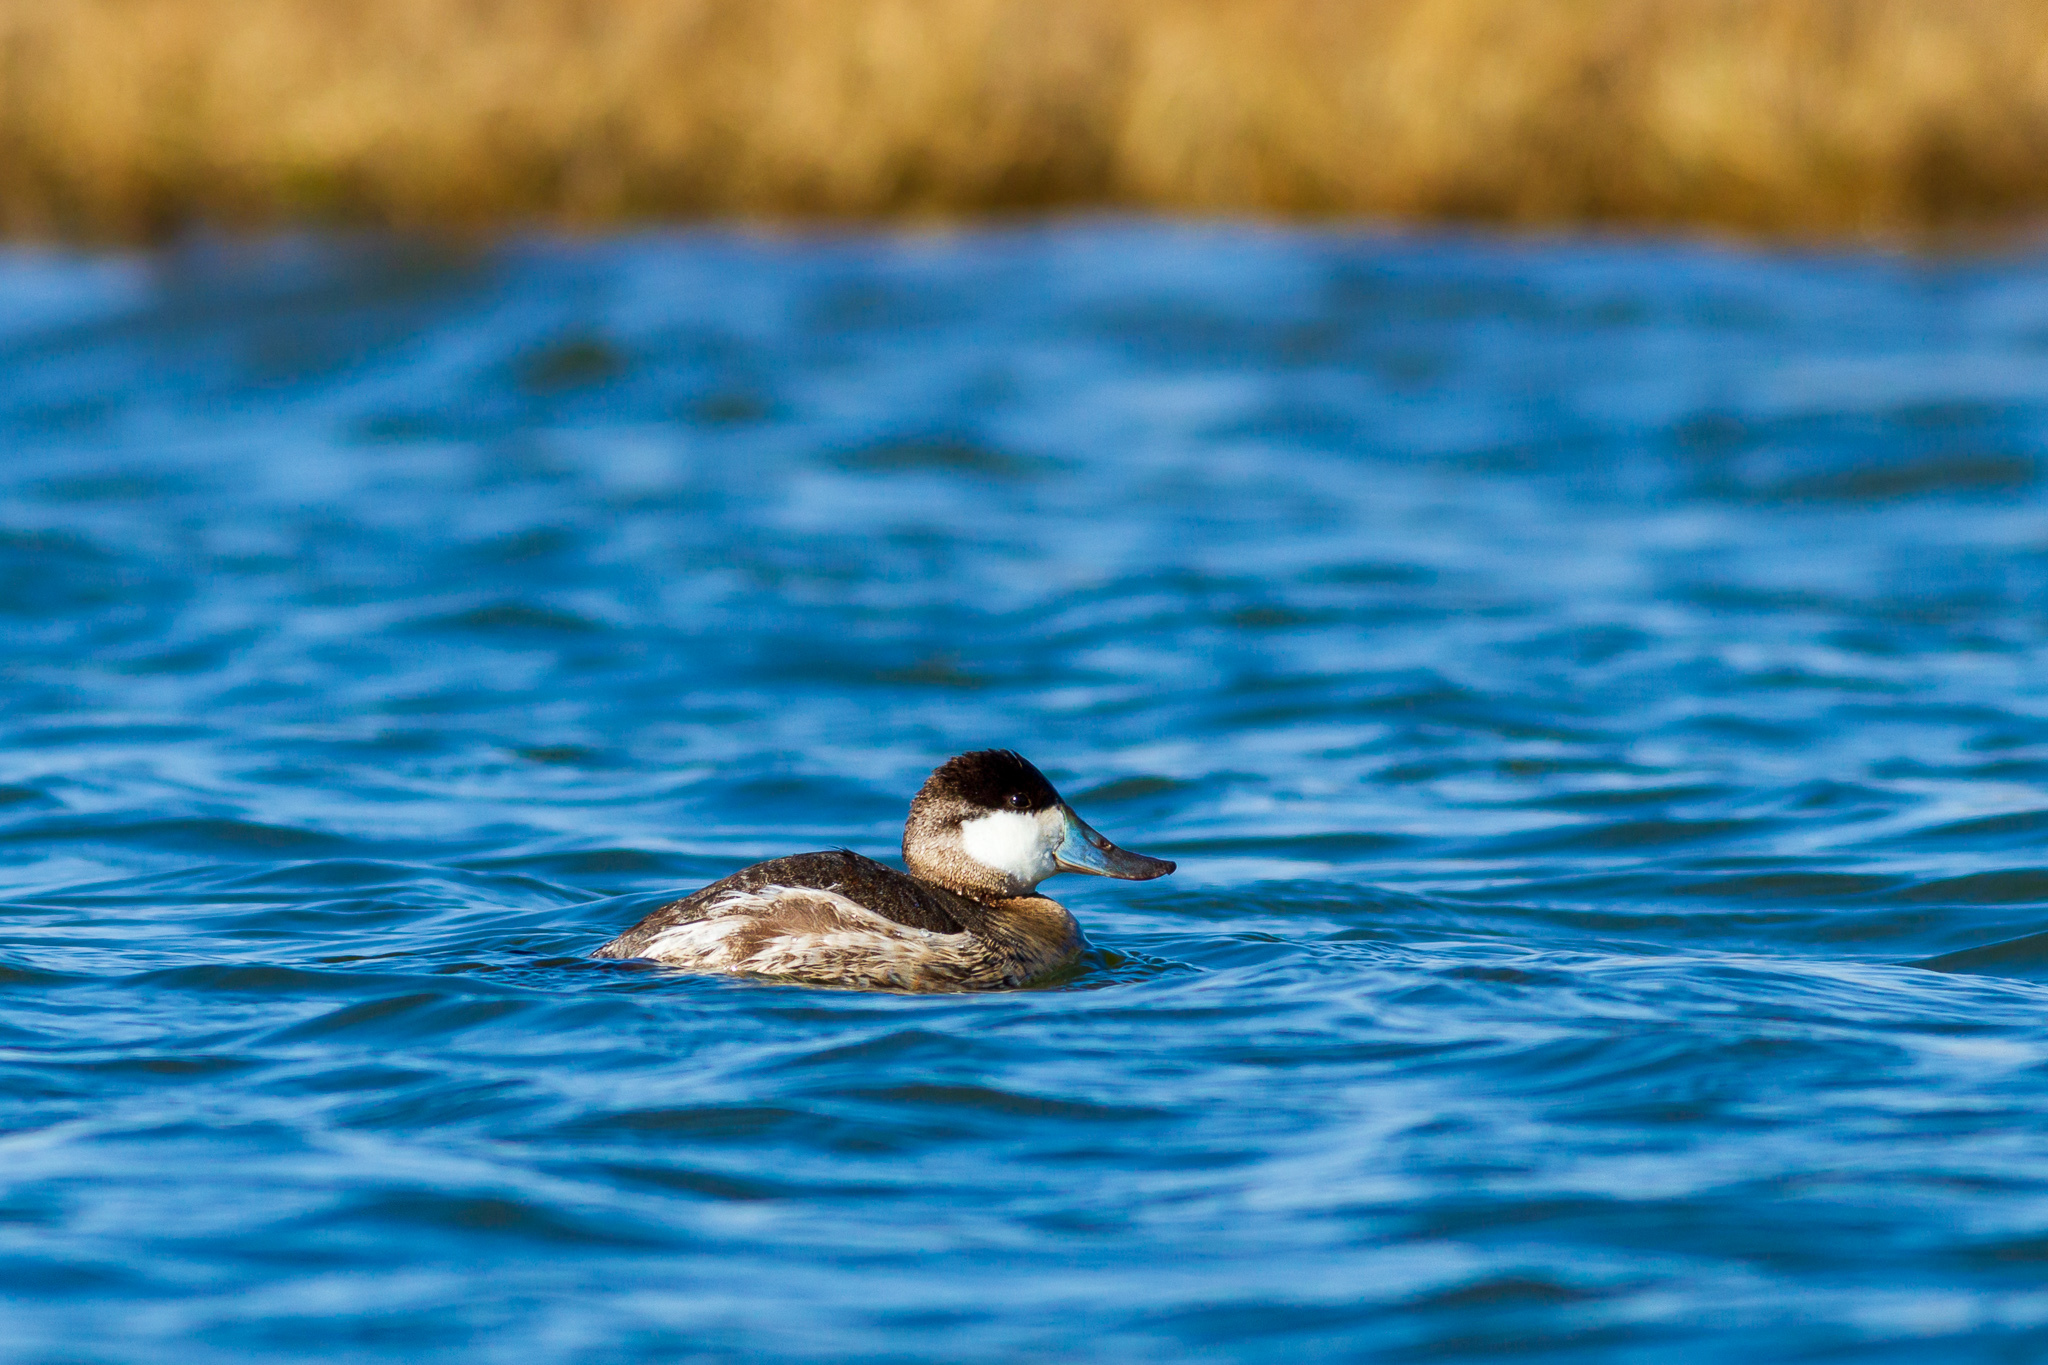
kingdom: Animalia
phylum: Chordata
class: Aves
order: Anseriformes
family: Anatidae
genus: Oxyura
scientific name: Oxyura jamaicensis
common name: Ruddy duck
